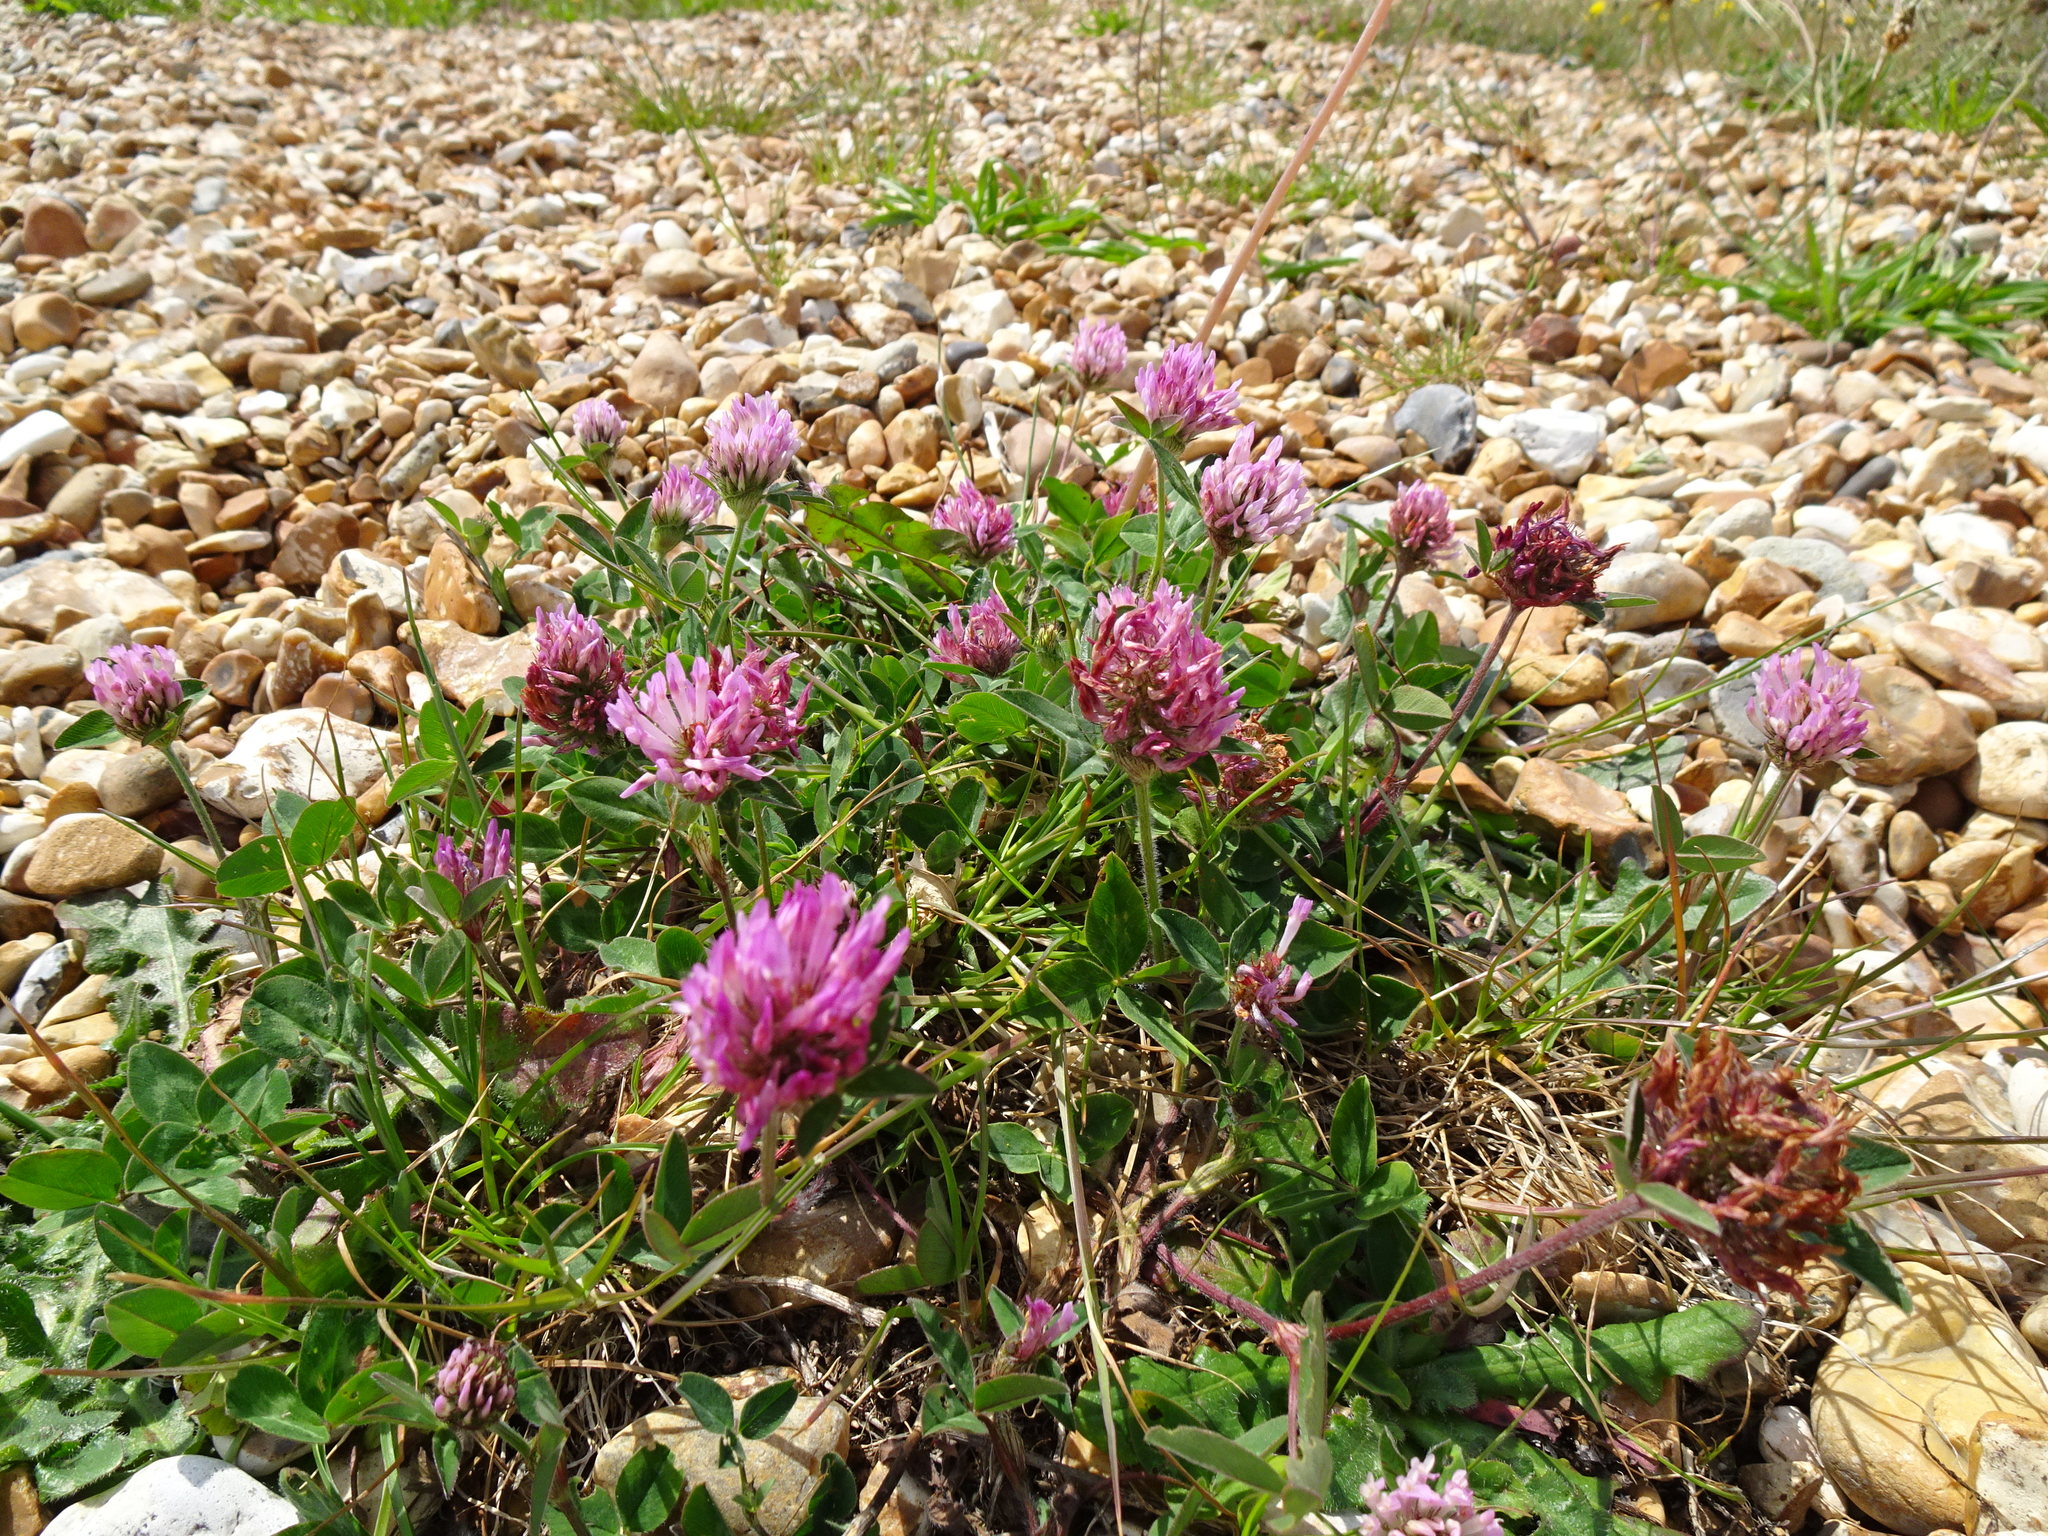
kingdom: Plantae
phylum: Tracheophyta
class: Magnoliopsida
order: Fabales
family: Fabaceae
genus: Trifolium
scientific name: Trifolium pratense
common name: Red clover
